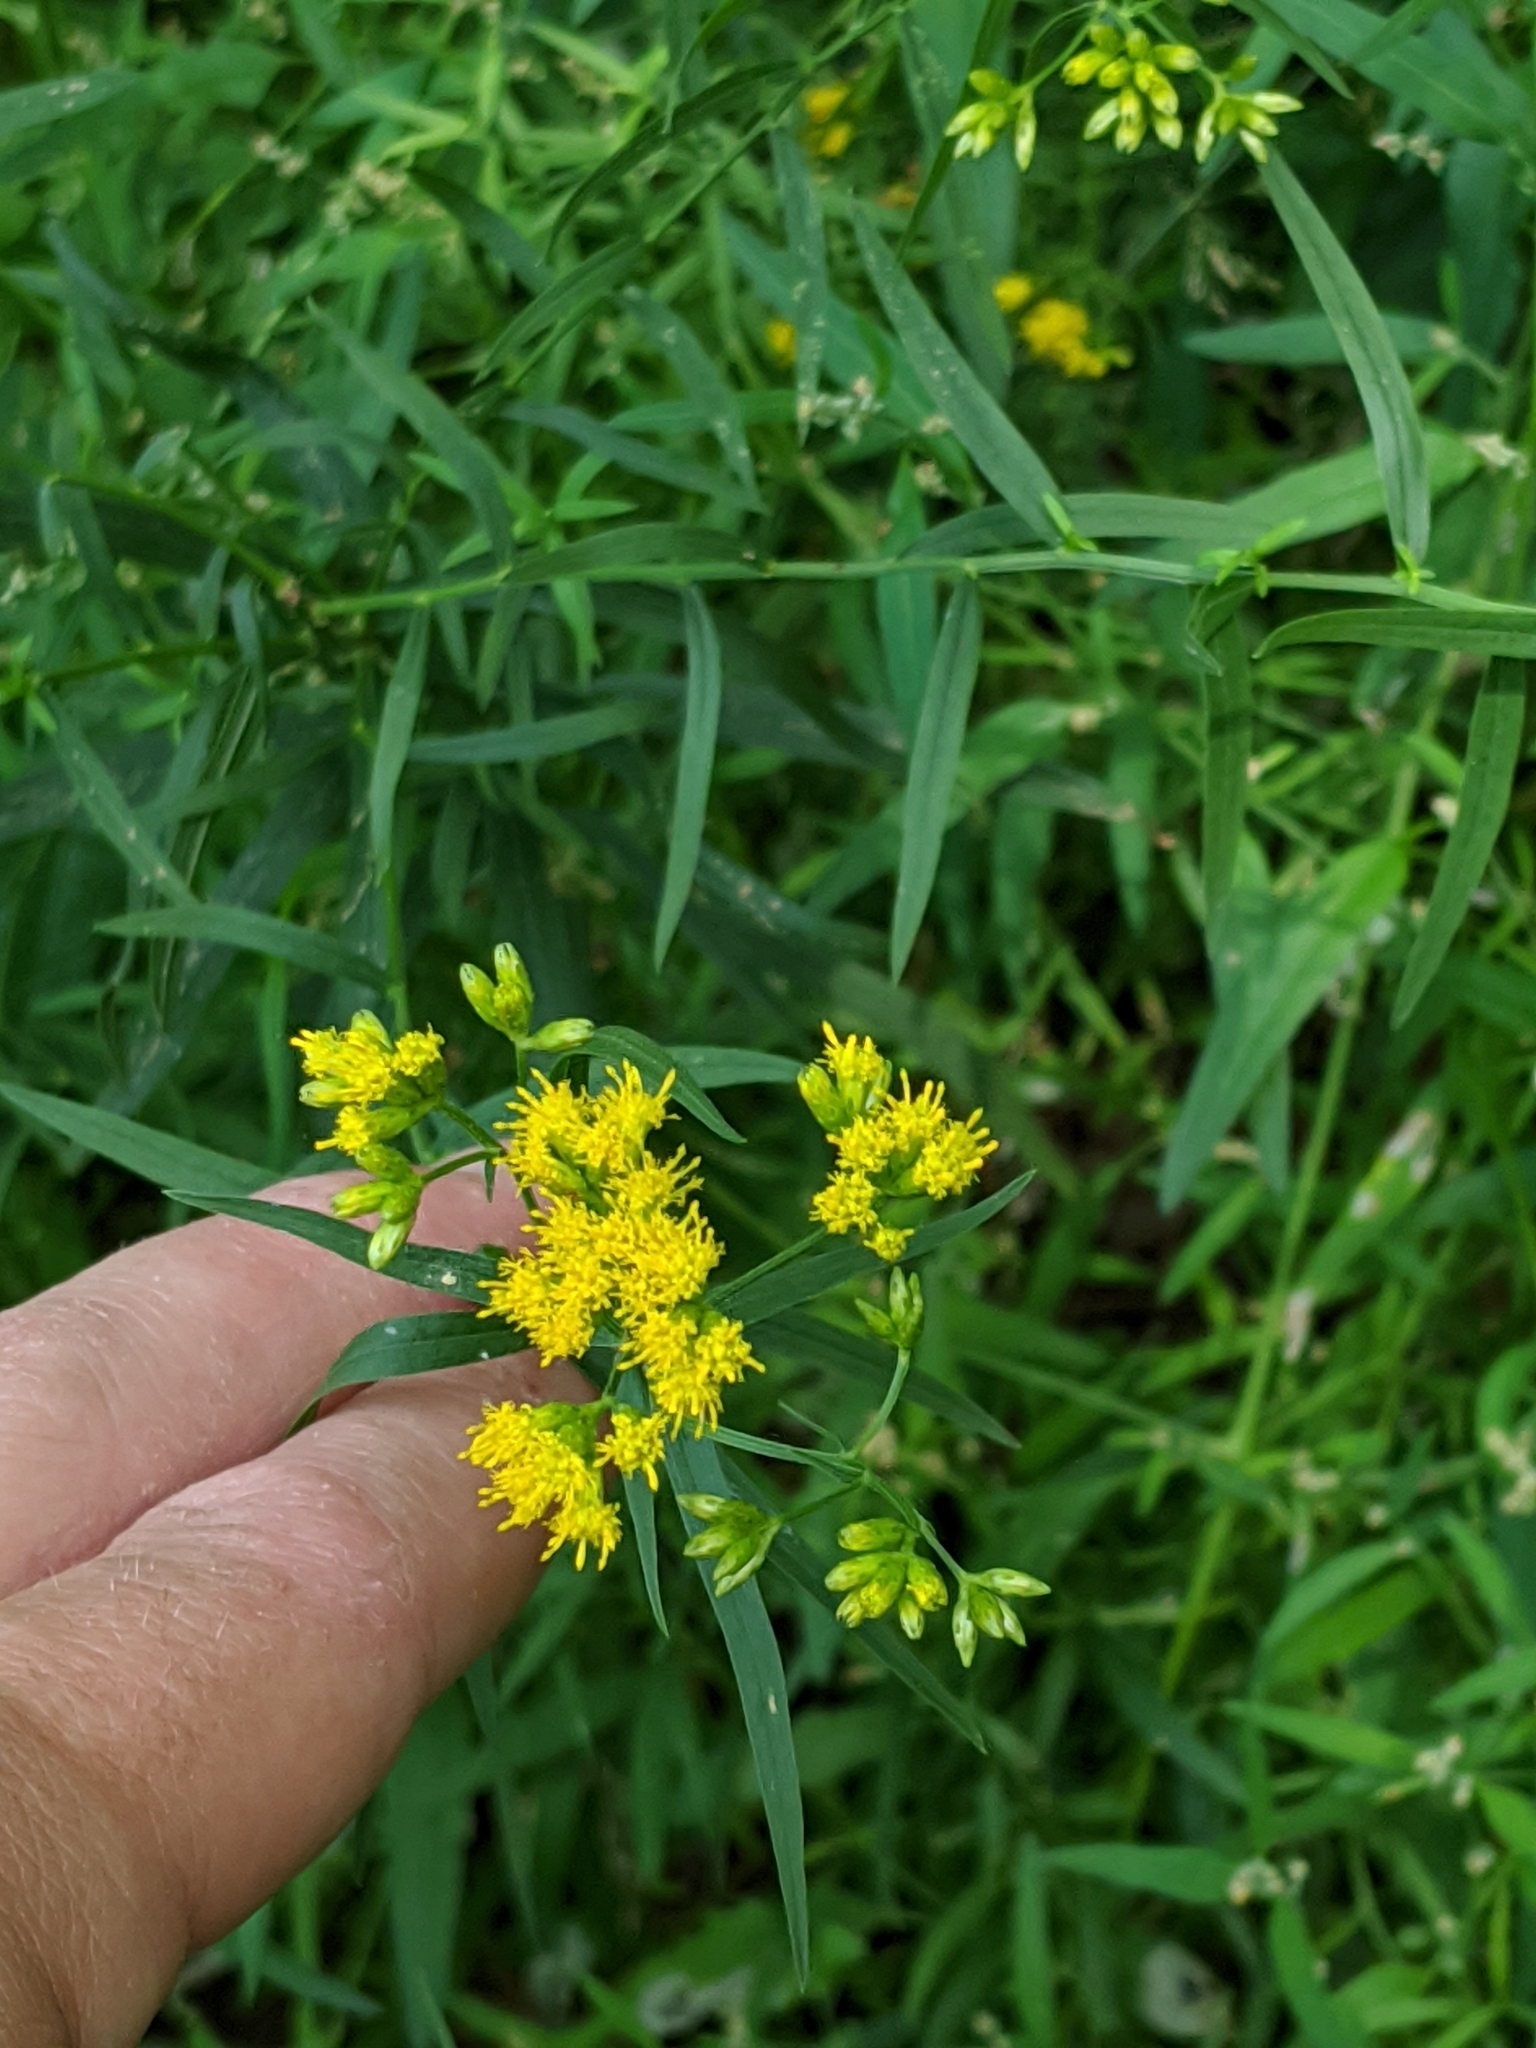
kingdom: Plantae
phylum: Tracheophyta
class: Magnoliopsida
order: Asterales
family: Asteraceae
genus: Euthamia
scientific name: Euthamia graminifolia
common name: Common goldentop
